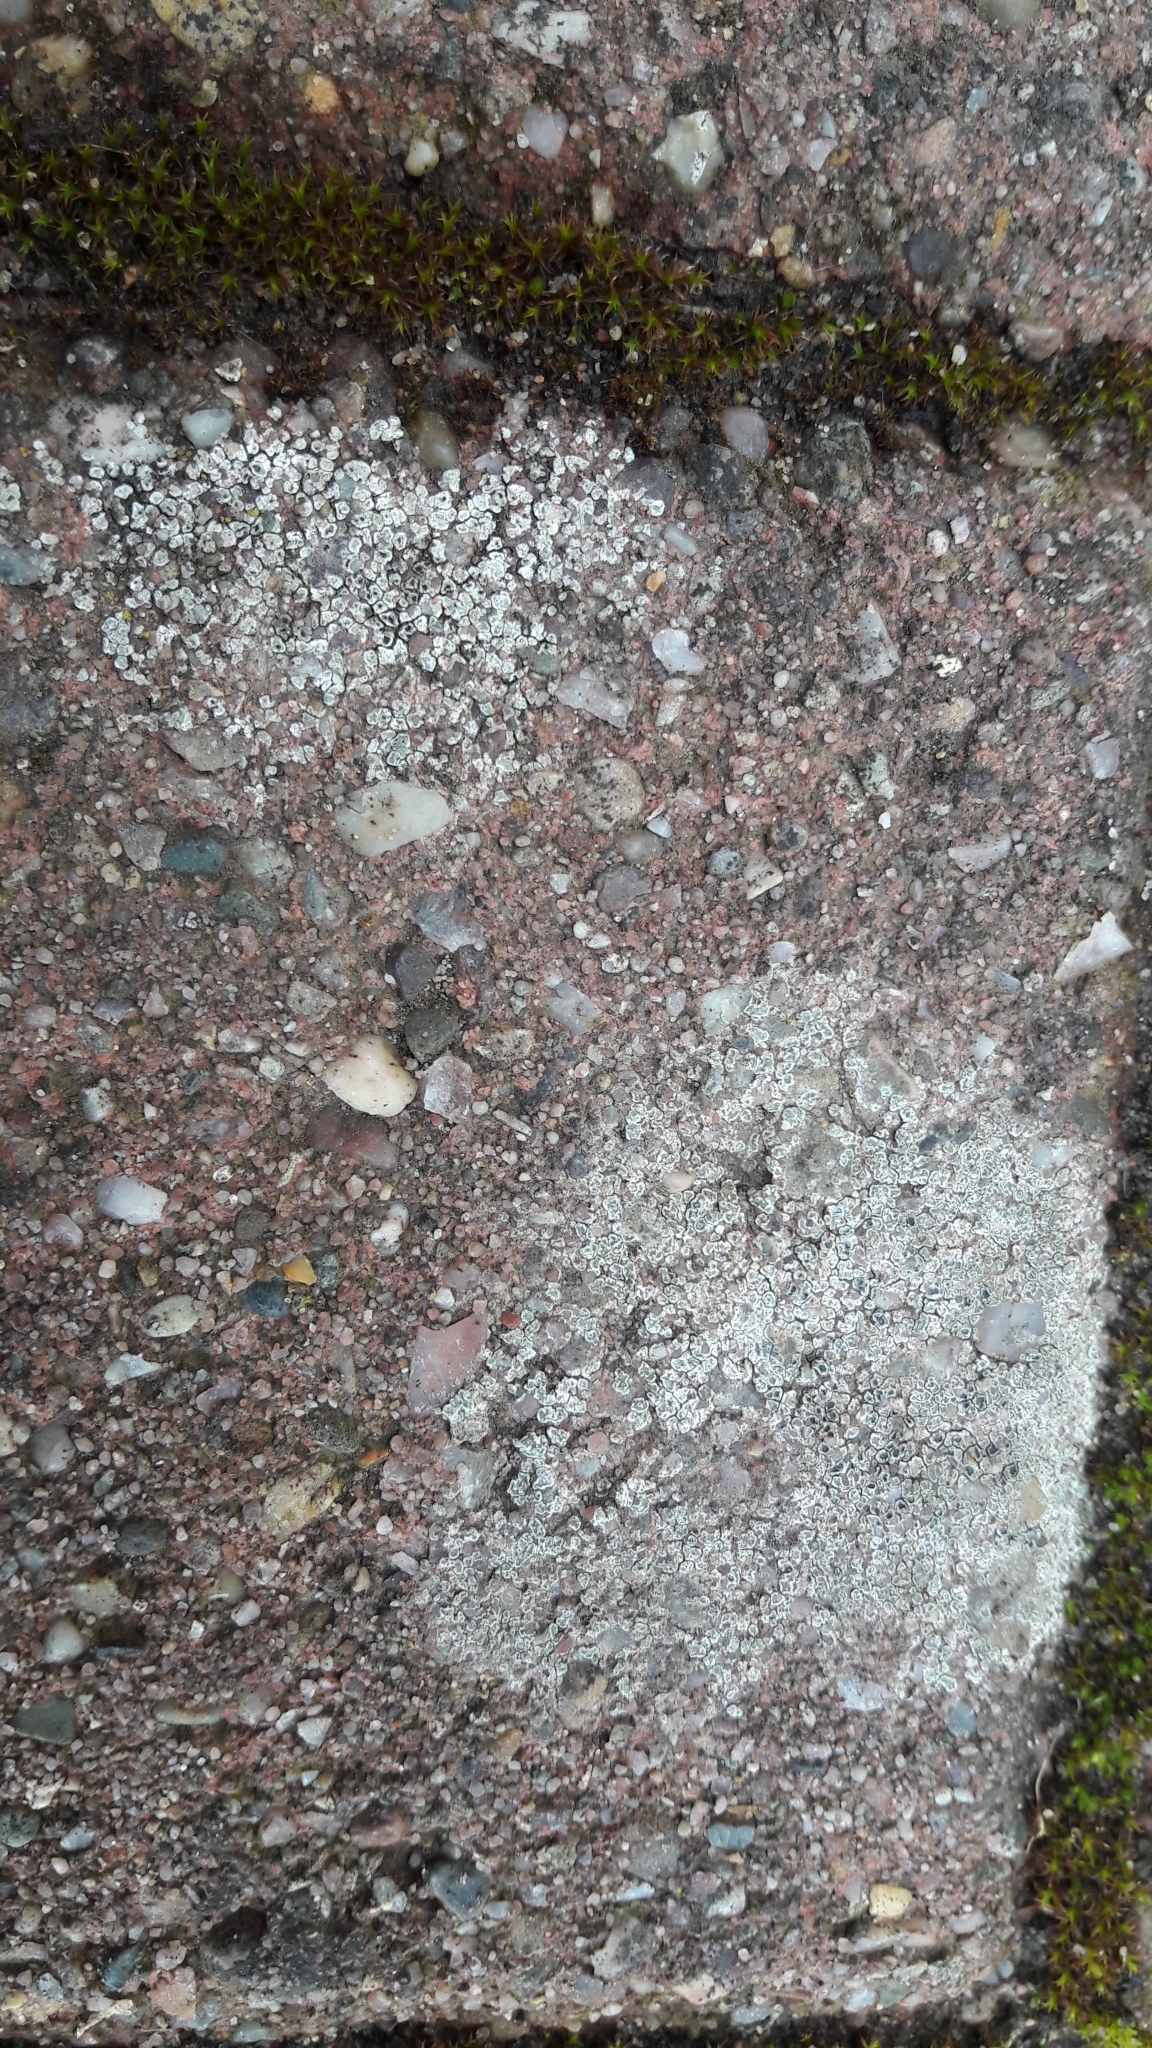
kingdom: Fungi
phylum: Ascomycota
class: Lecanoromycetes
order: Pertusariales
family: Megasporaceae
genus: Circinaria
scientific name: Circinaria contorta
